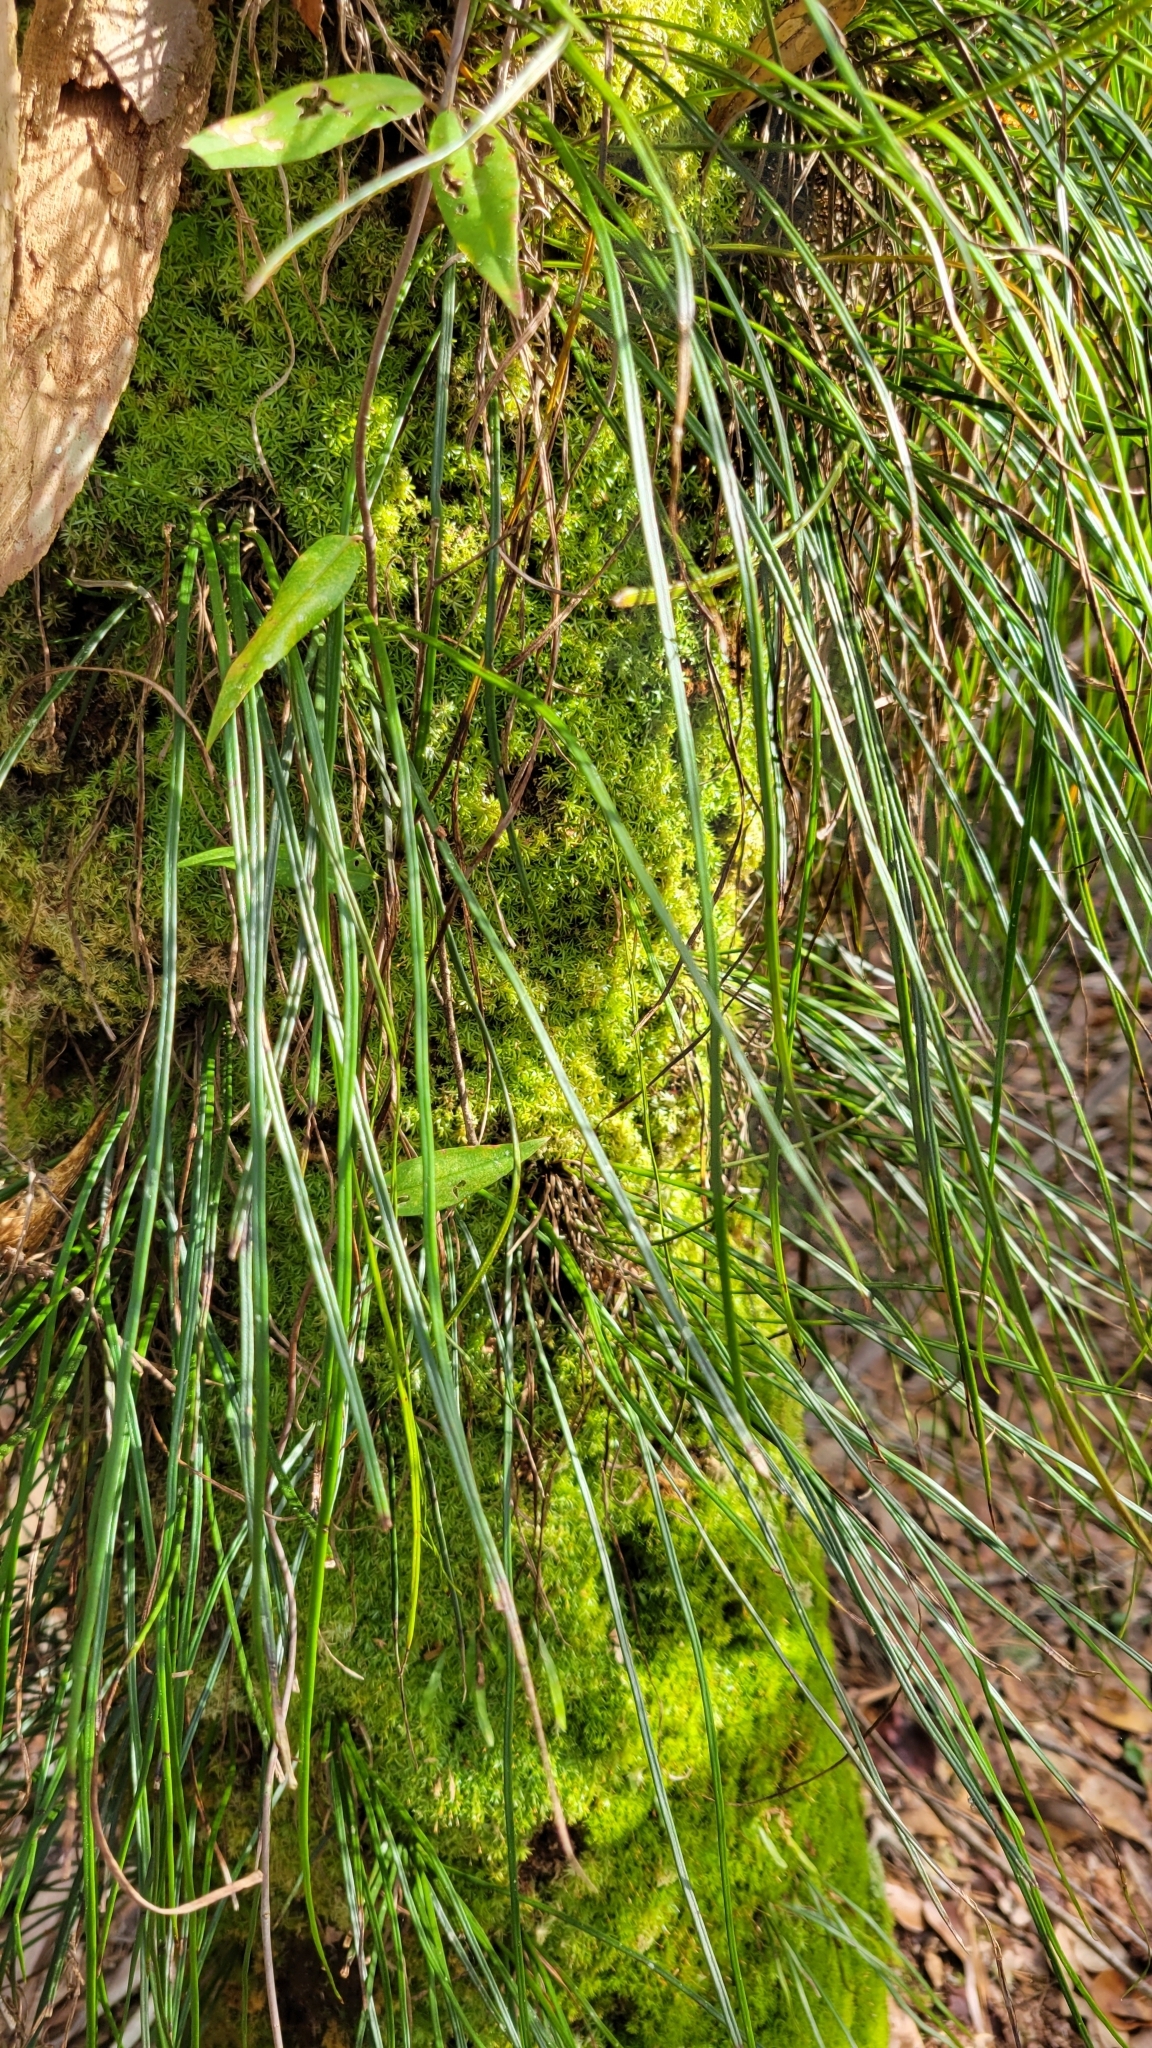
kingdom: Plantae
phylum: Tracheophyta
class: Polypodiopsida
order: Polypodiales
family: Pteridaceae
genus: Vittaria
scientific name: Vittaria lineata
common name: Shoestring fern
